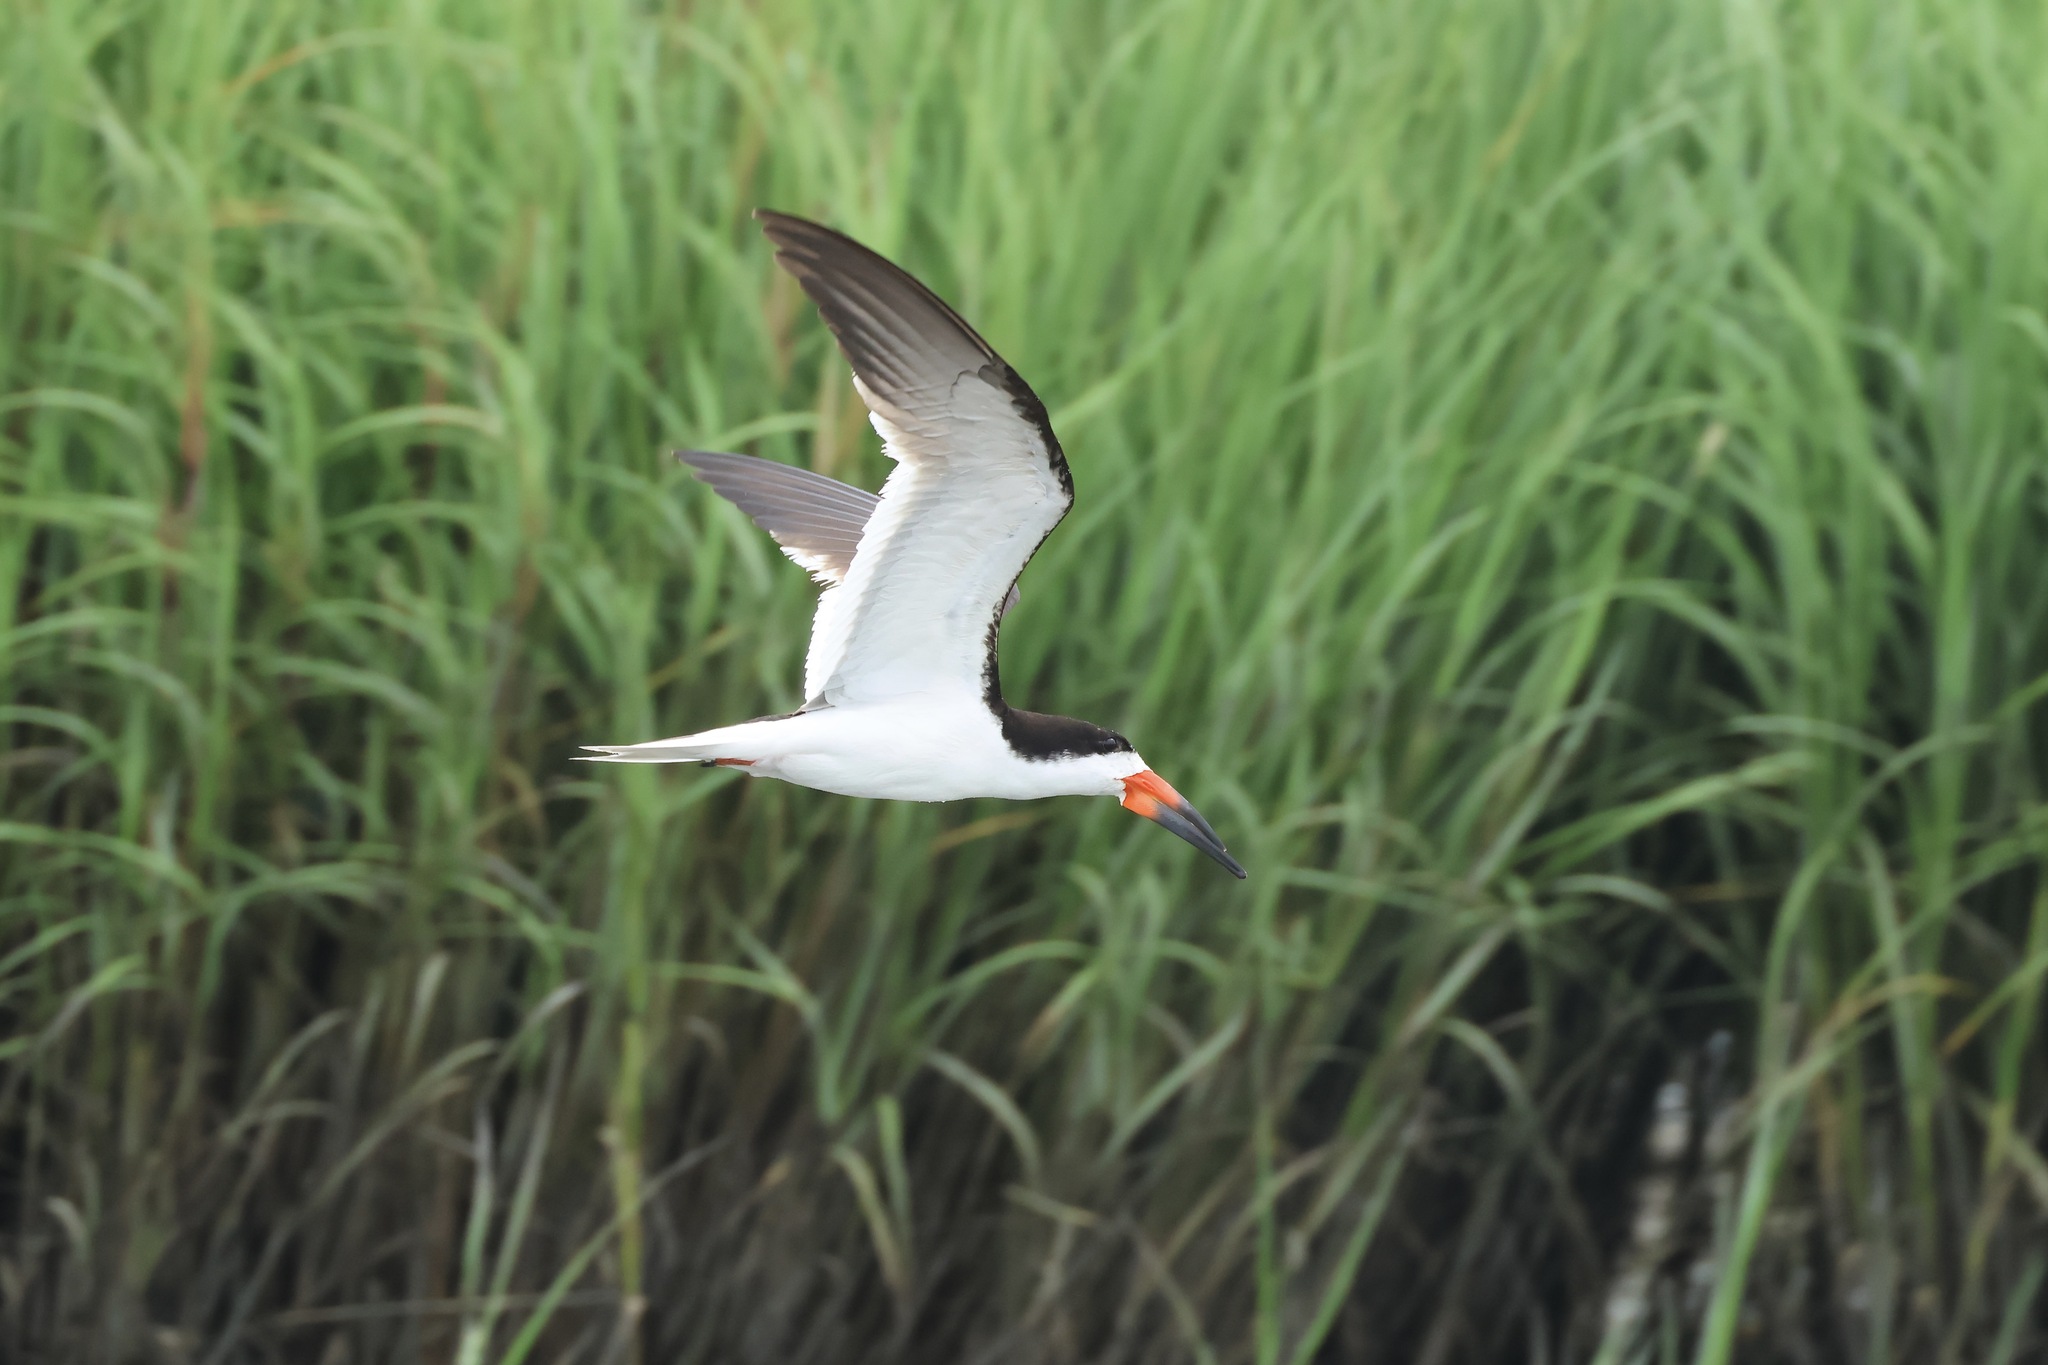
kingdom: Animalia
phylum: Chordata
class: Aves
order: Charadriiformes
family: Laridae
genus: Rynchops
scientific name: Rynchops niger
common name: Black skimmer
